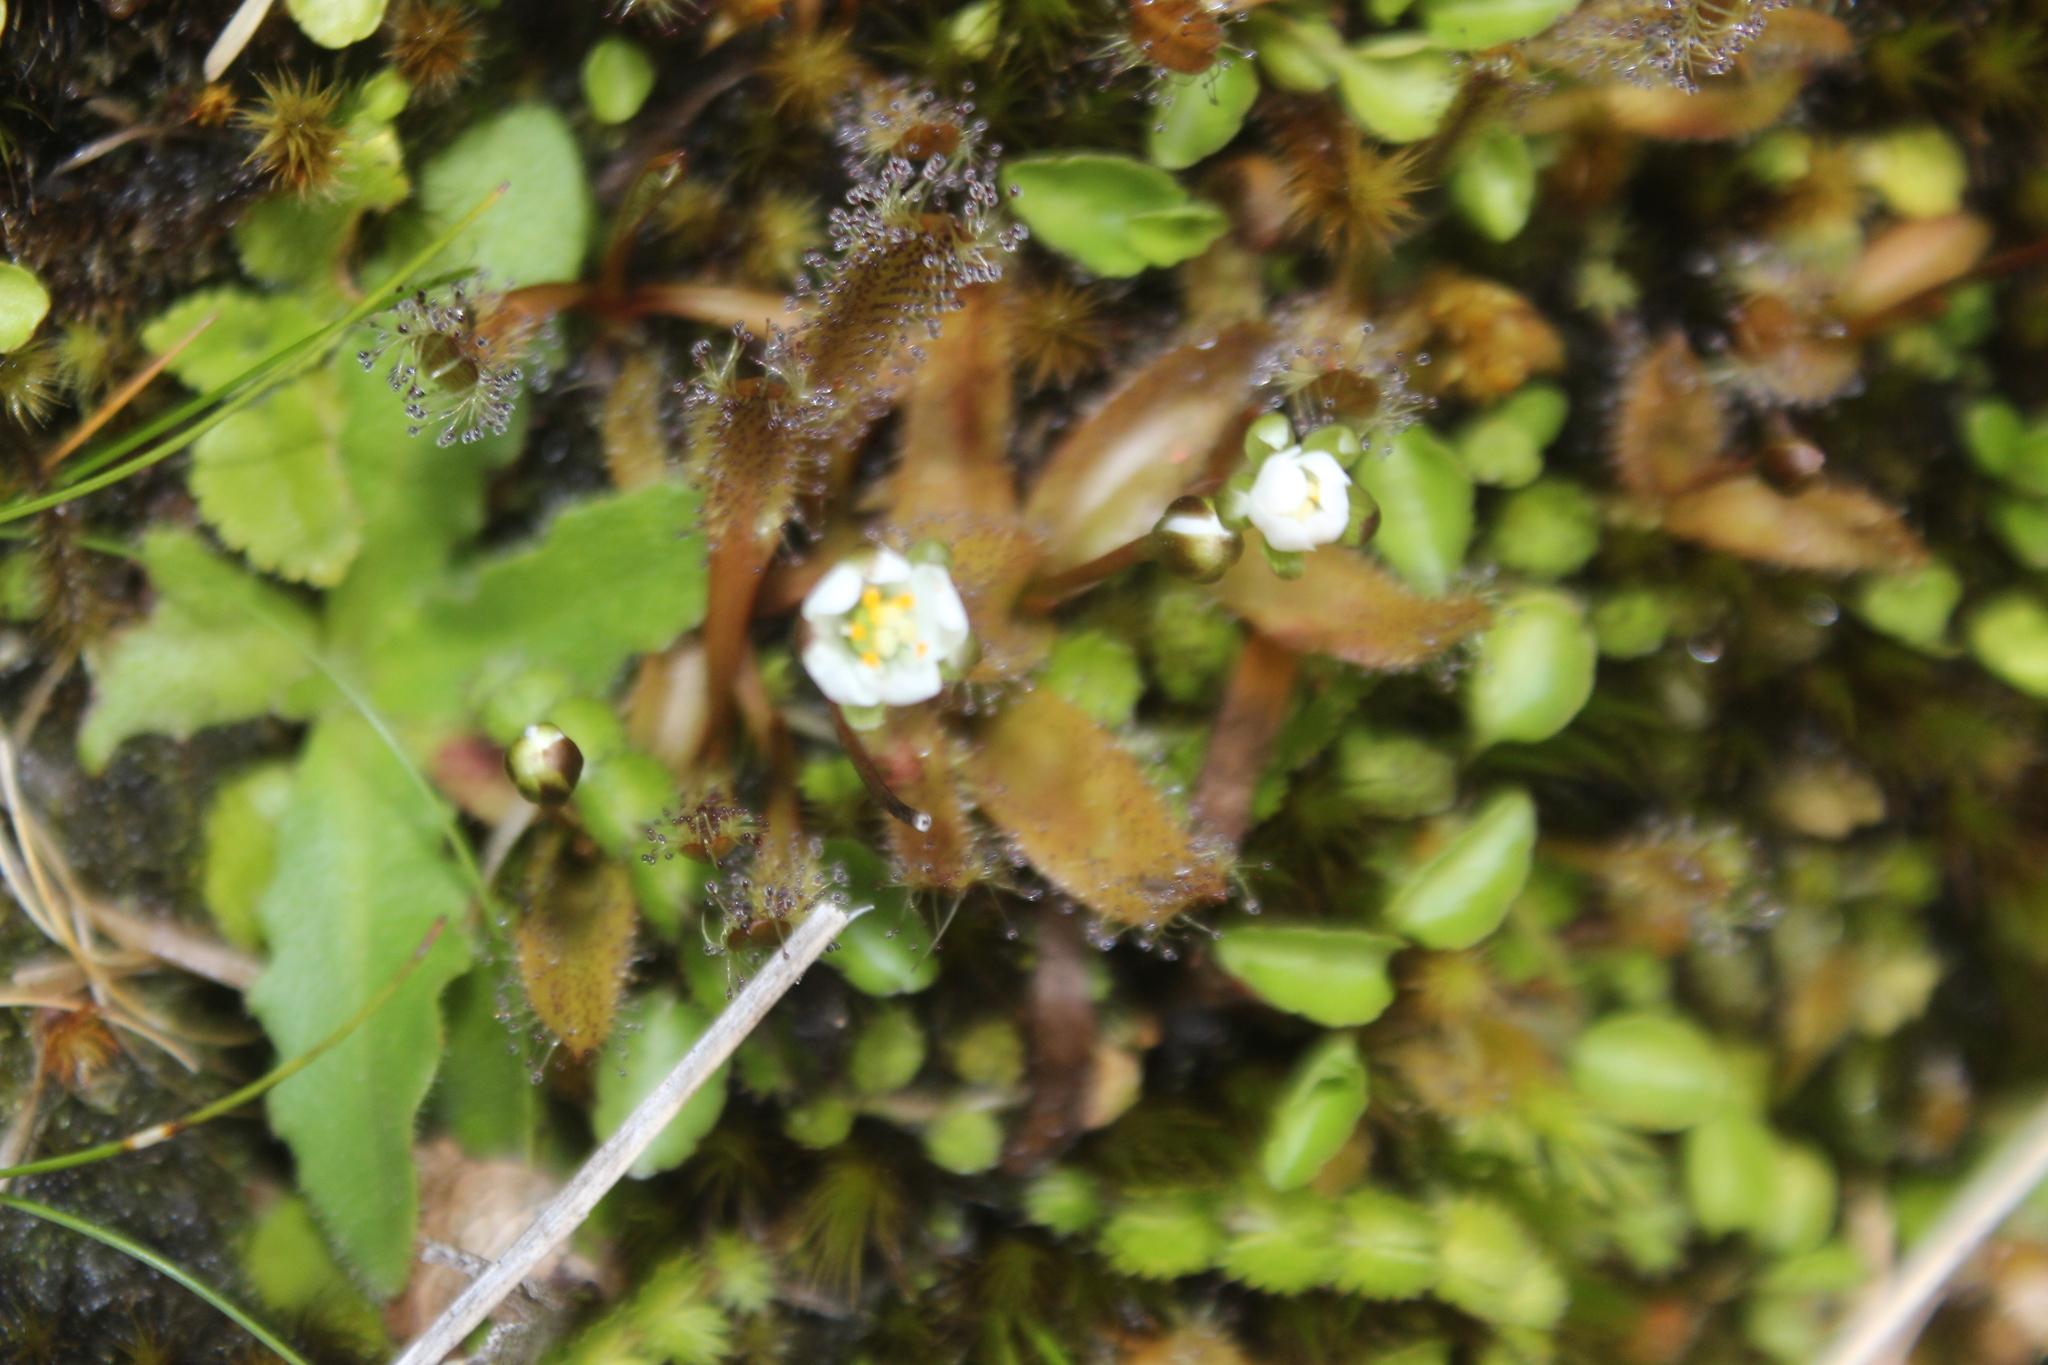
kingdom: Plantae
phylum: Tracheophyta
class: Magnoliopsida
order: Caryophyllales
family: Droseraceae
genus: Drosera
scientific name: Drosera arcturi
